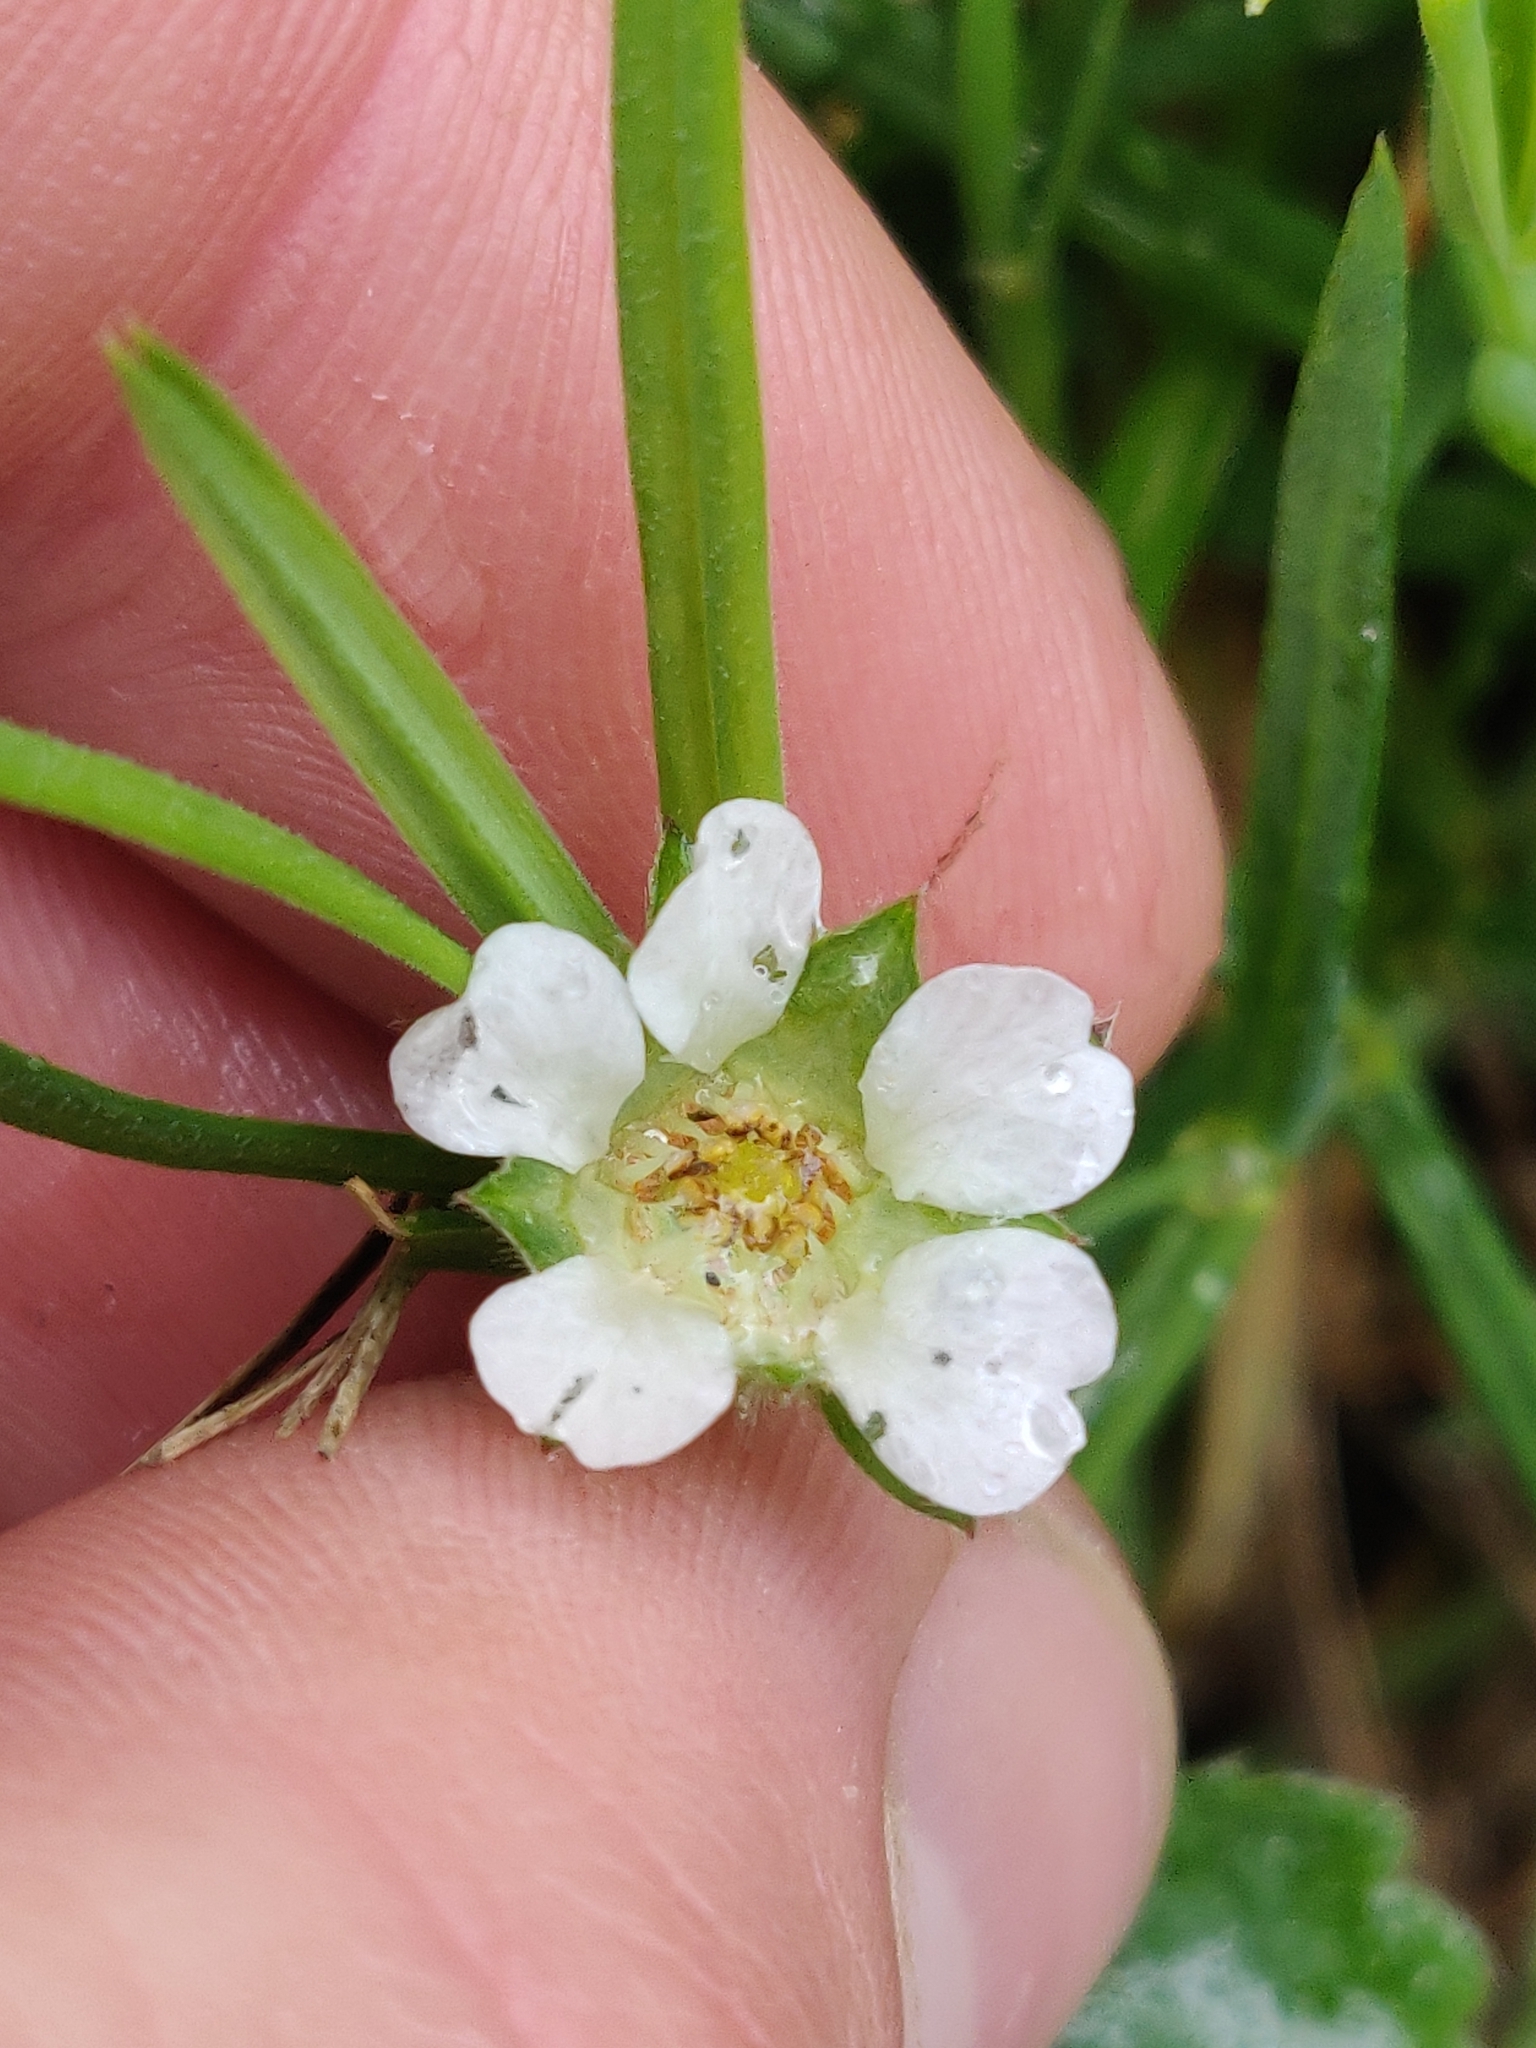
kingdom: Plantae
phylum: Tracheophyta
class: Magnoliopsida
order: Rosales
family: Rosaceae
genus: Potentilla
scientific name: Potentilla sterilis
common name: Barren strawberry
